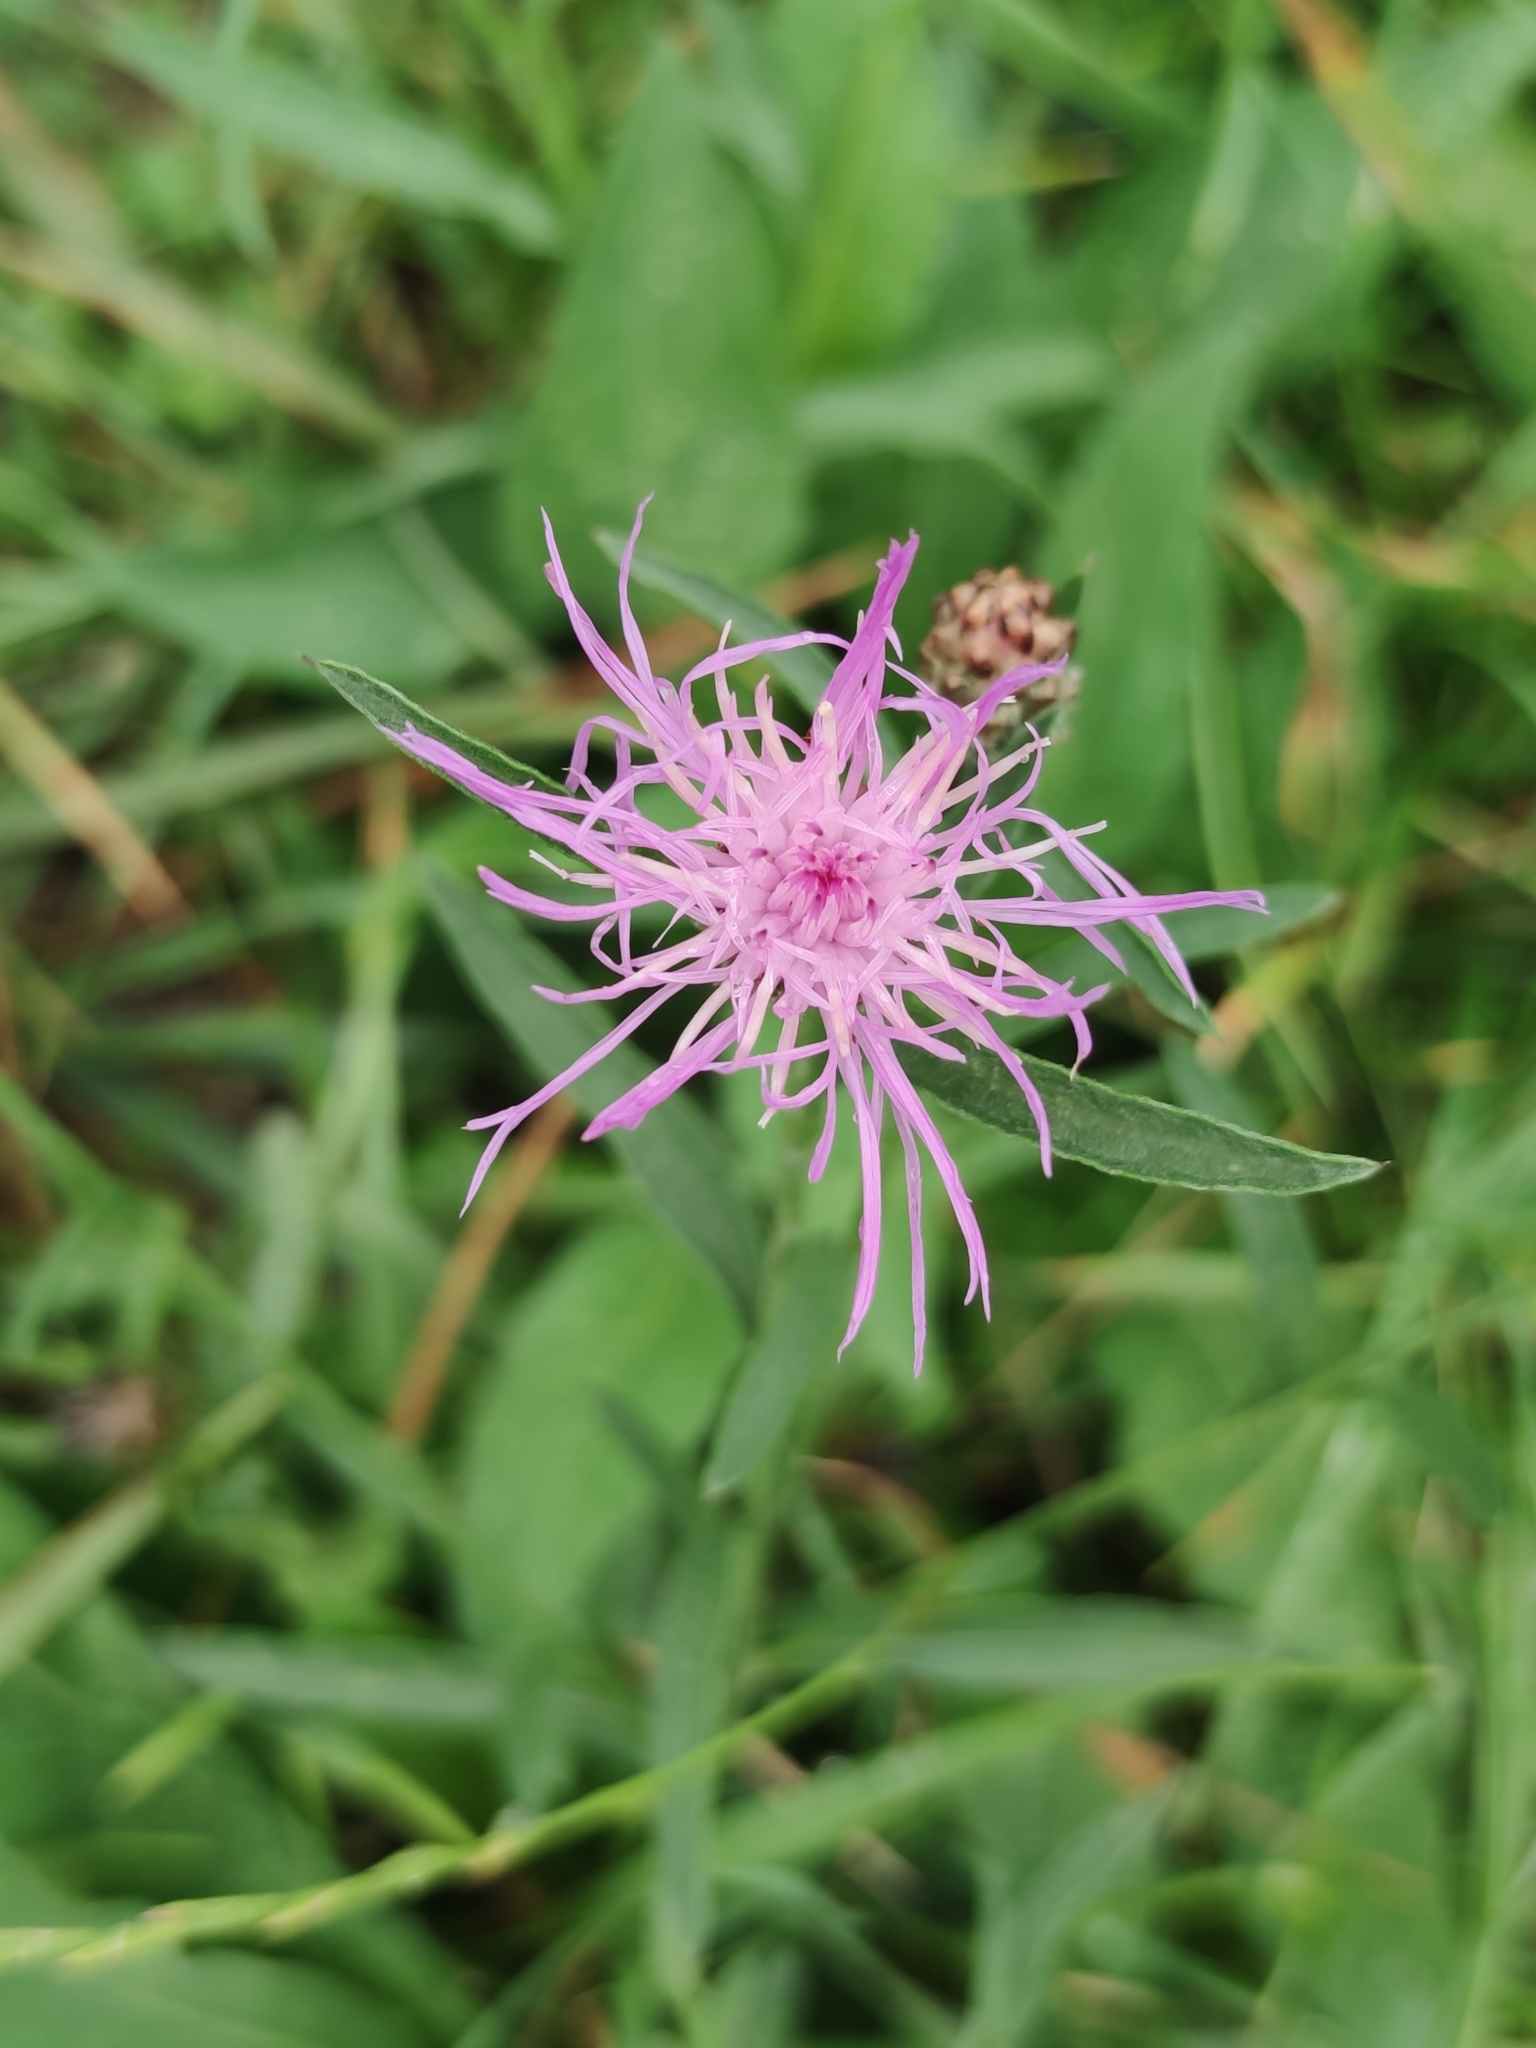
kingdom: Plantae
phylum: Tracheophyta
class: Magnoliopsida
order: Asterales
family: Asteraceae
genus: Centaurea
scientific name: Centaurea jacea
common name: Brown knapweed
